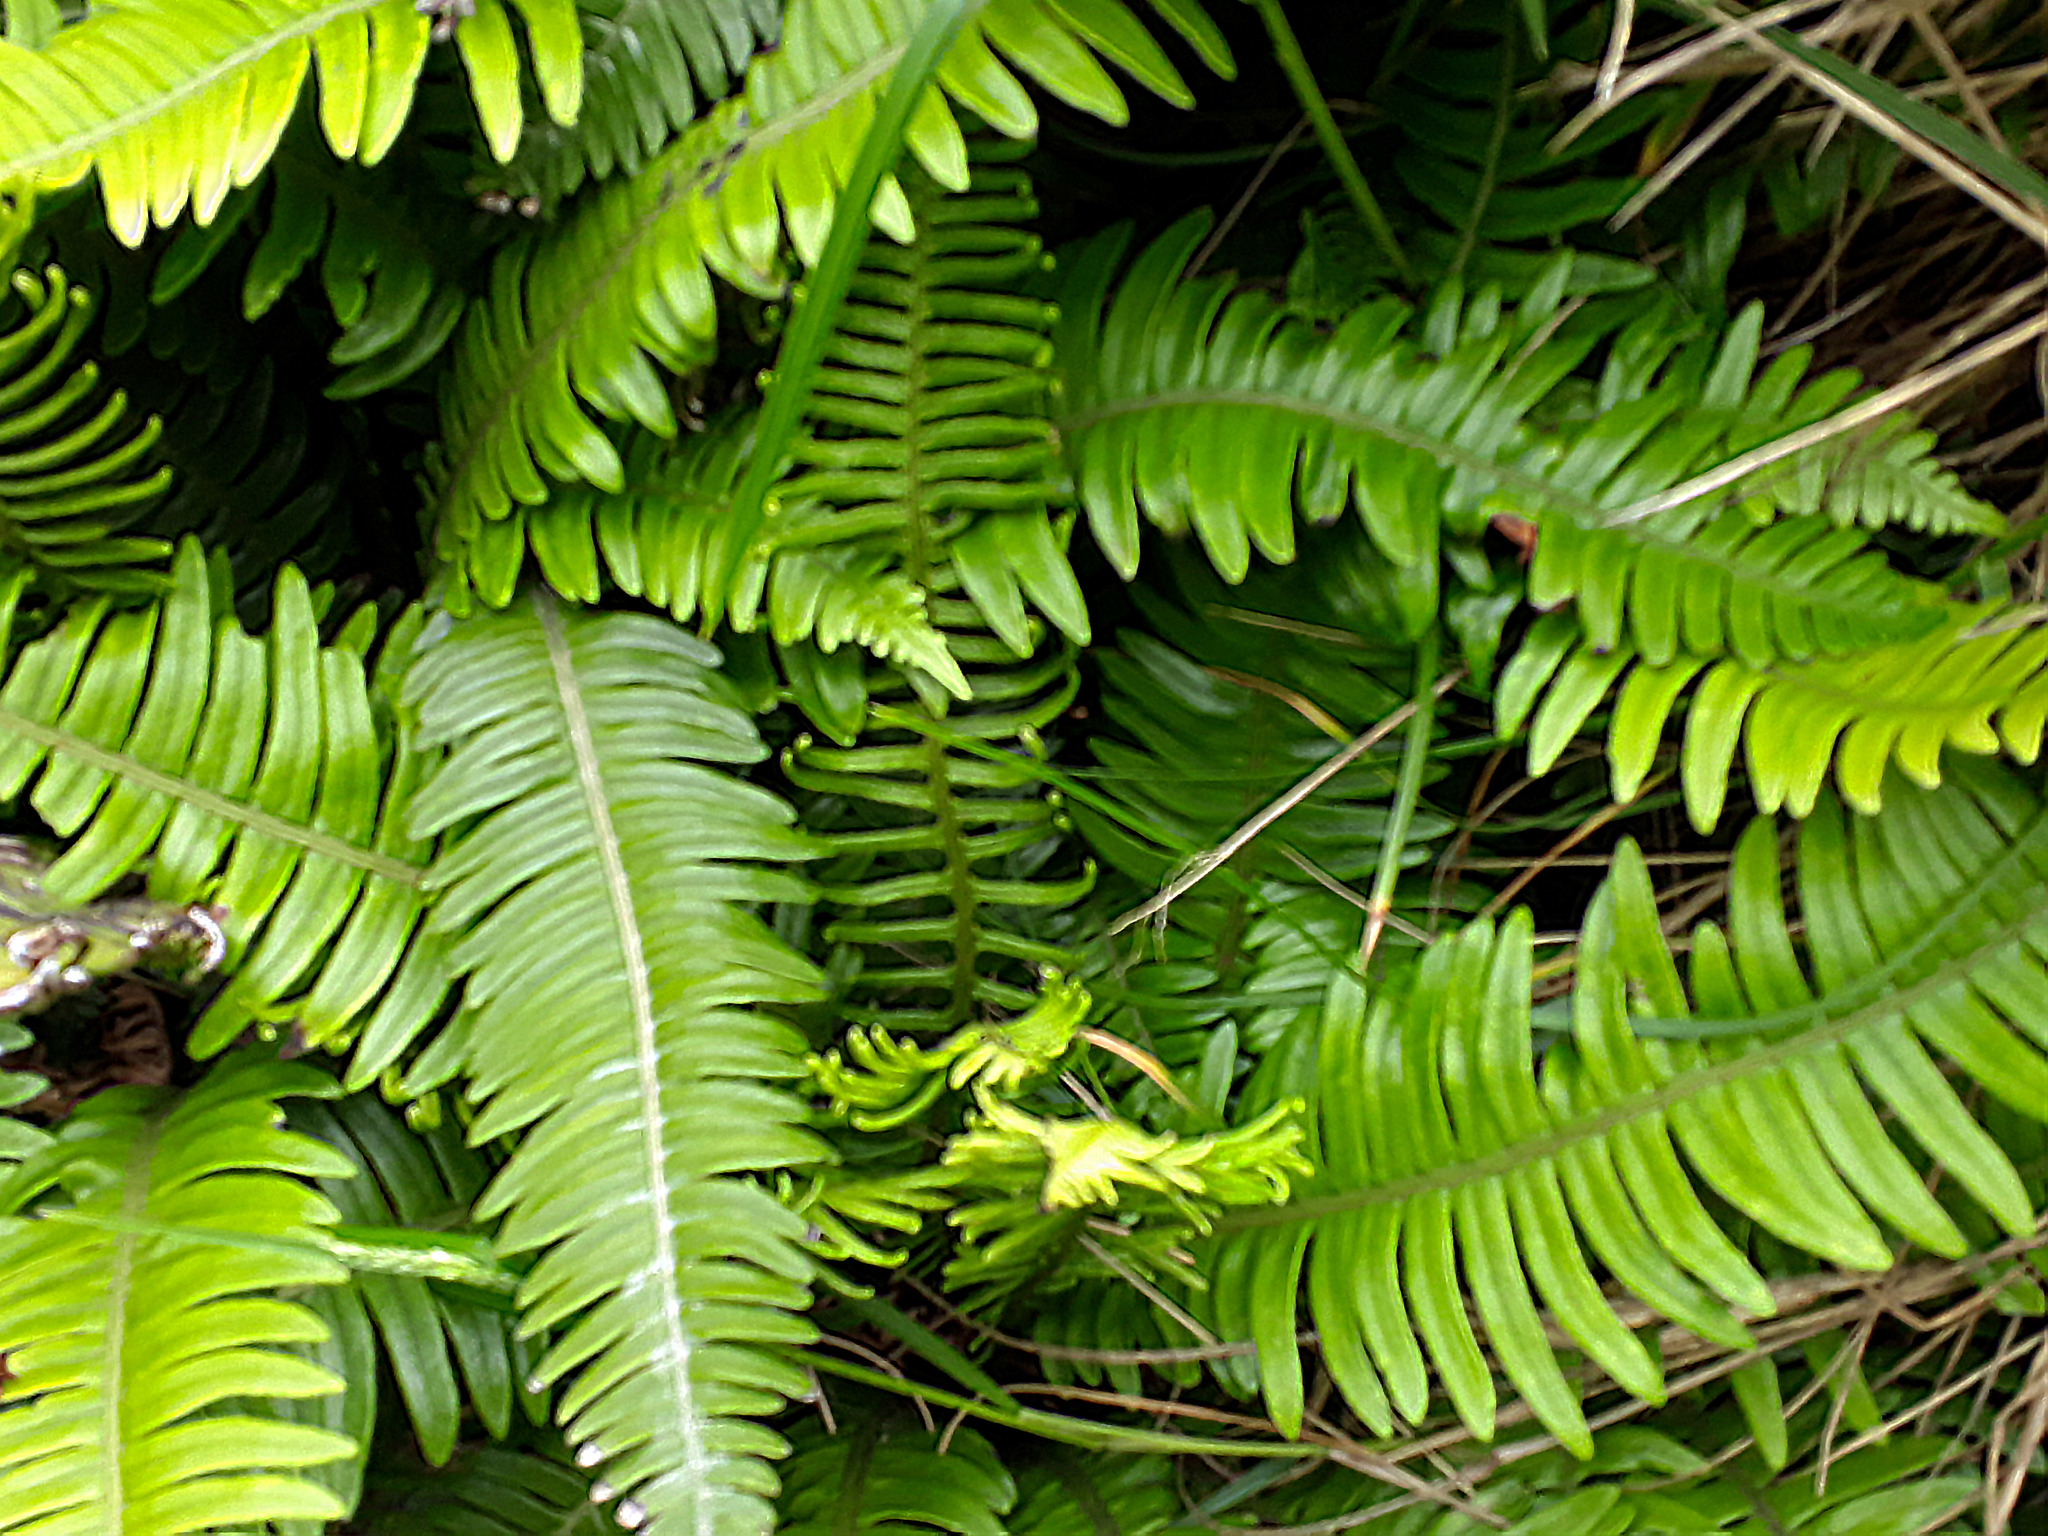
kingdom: Plantae
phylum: Tracheophyta
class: Polypodiopsida
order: Polypodiales
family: Blechnaceae
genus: Austroblechnum
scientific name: Austroblechnum durum
